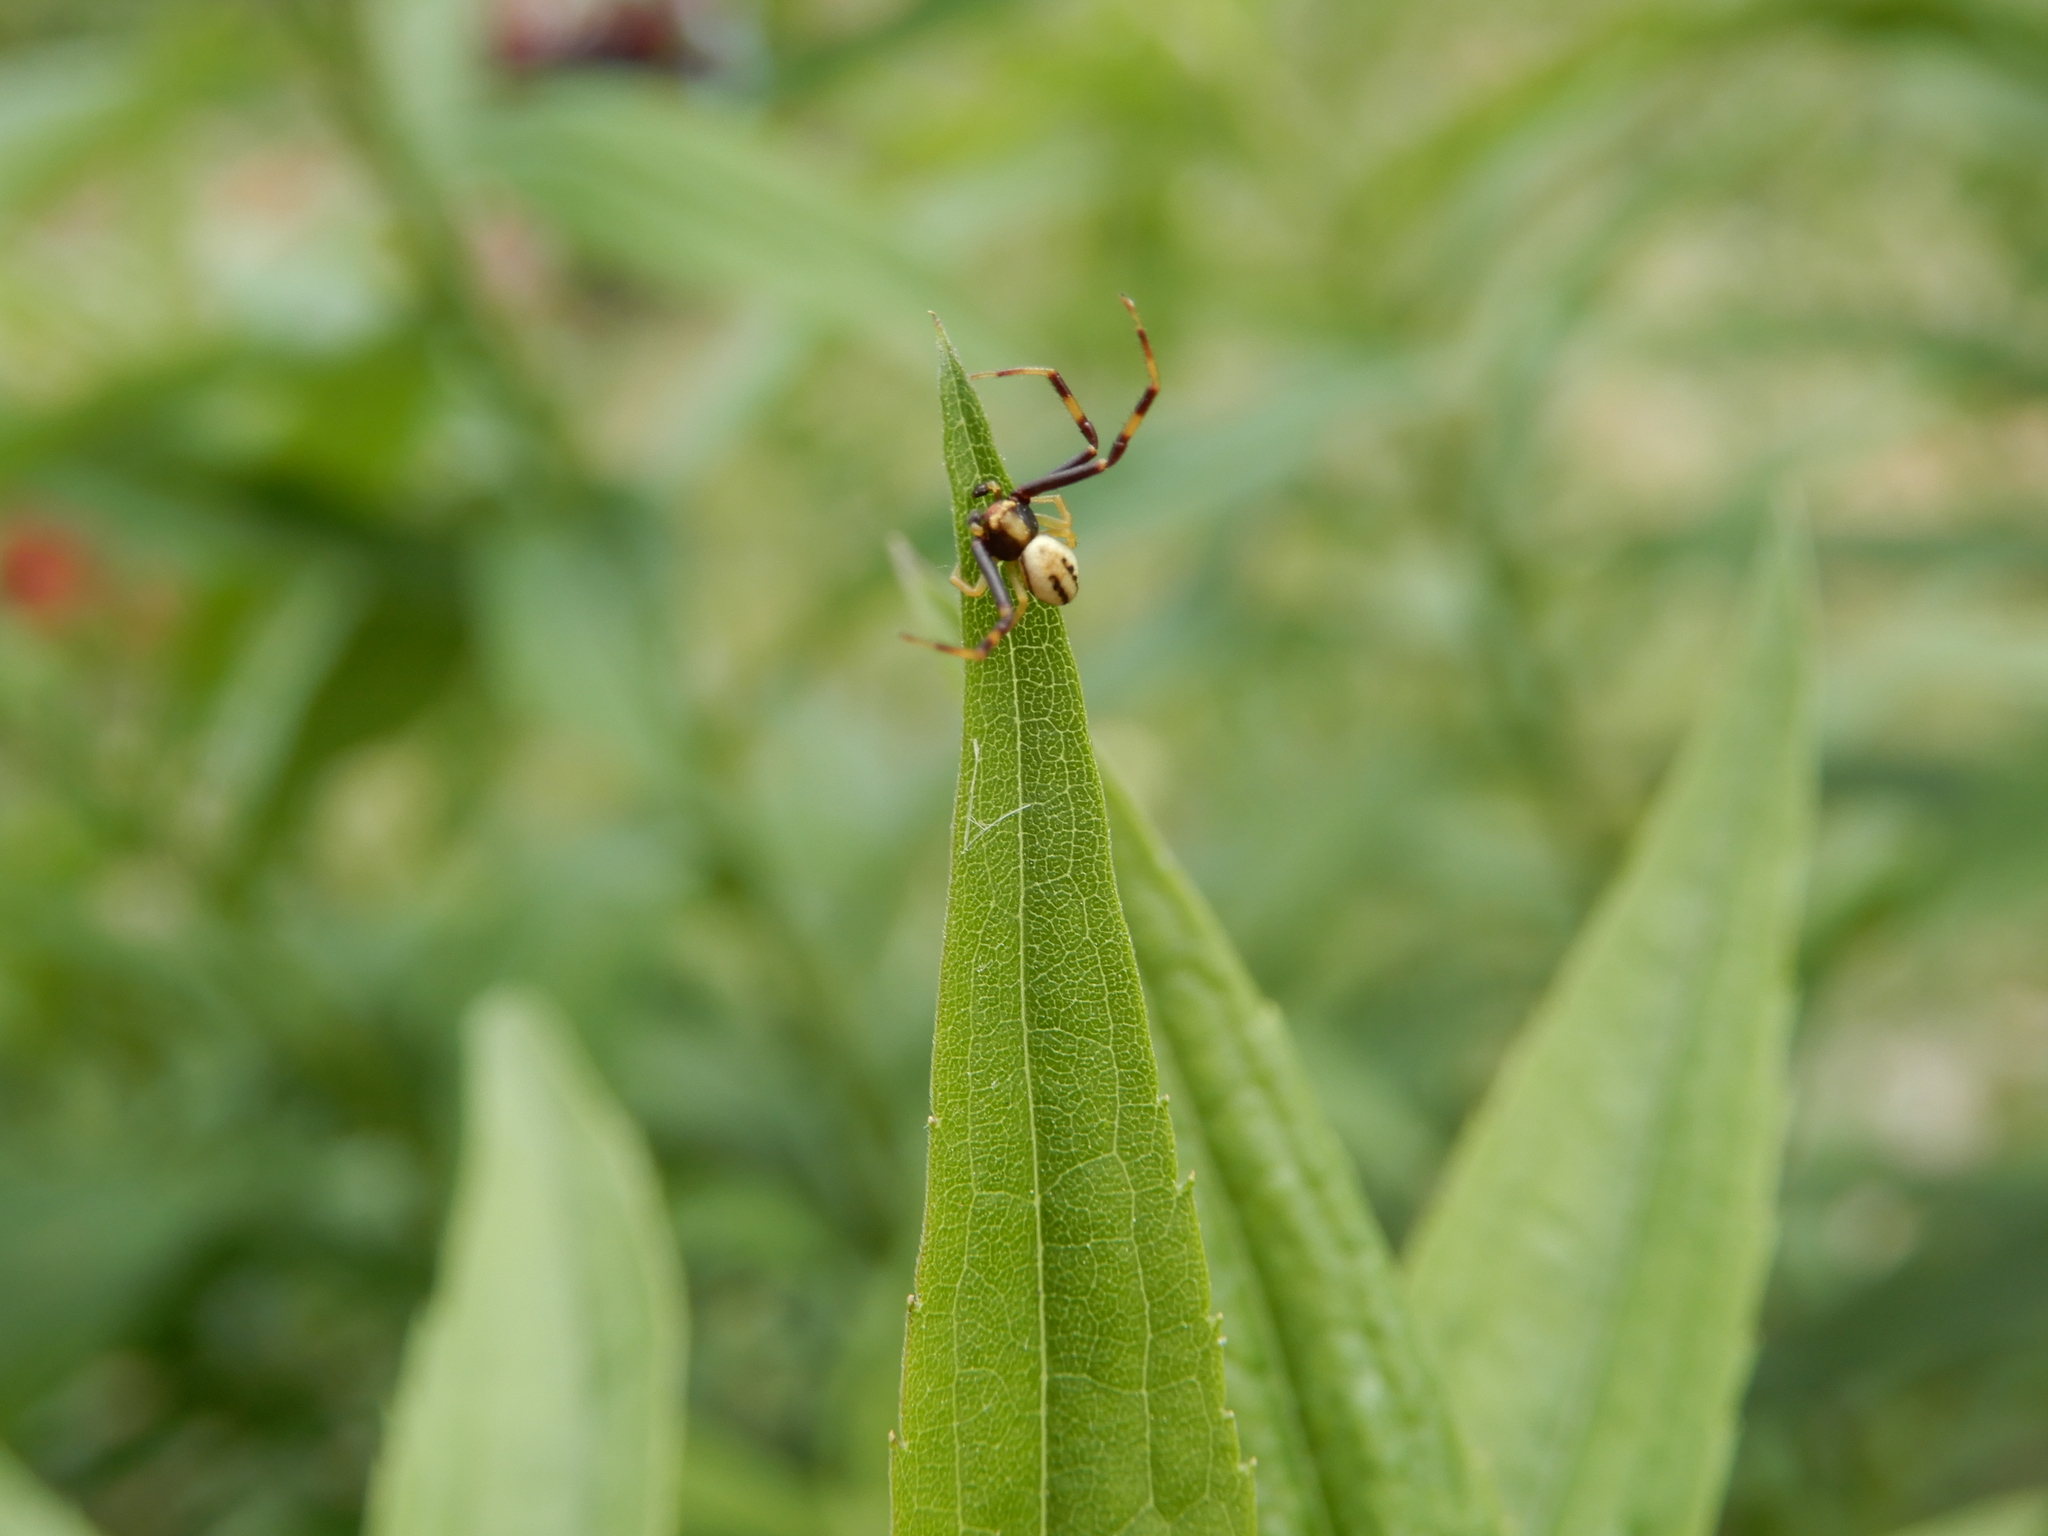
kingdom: Animalia
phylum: Arthropoda
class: Arachnida
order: Araneae
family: Thomisidae
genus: Misumena
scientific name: Misumena vatia
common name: Goldenrod crab spider
